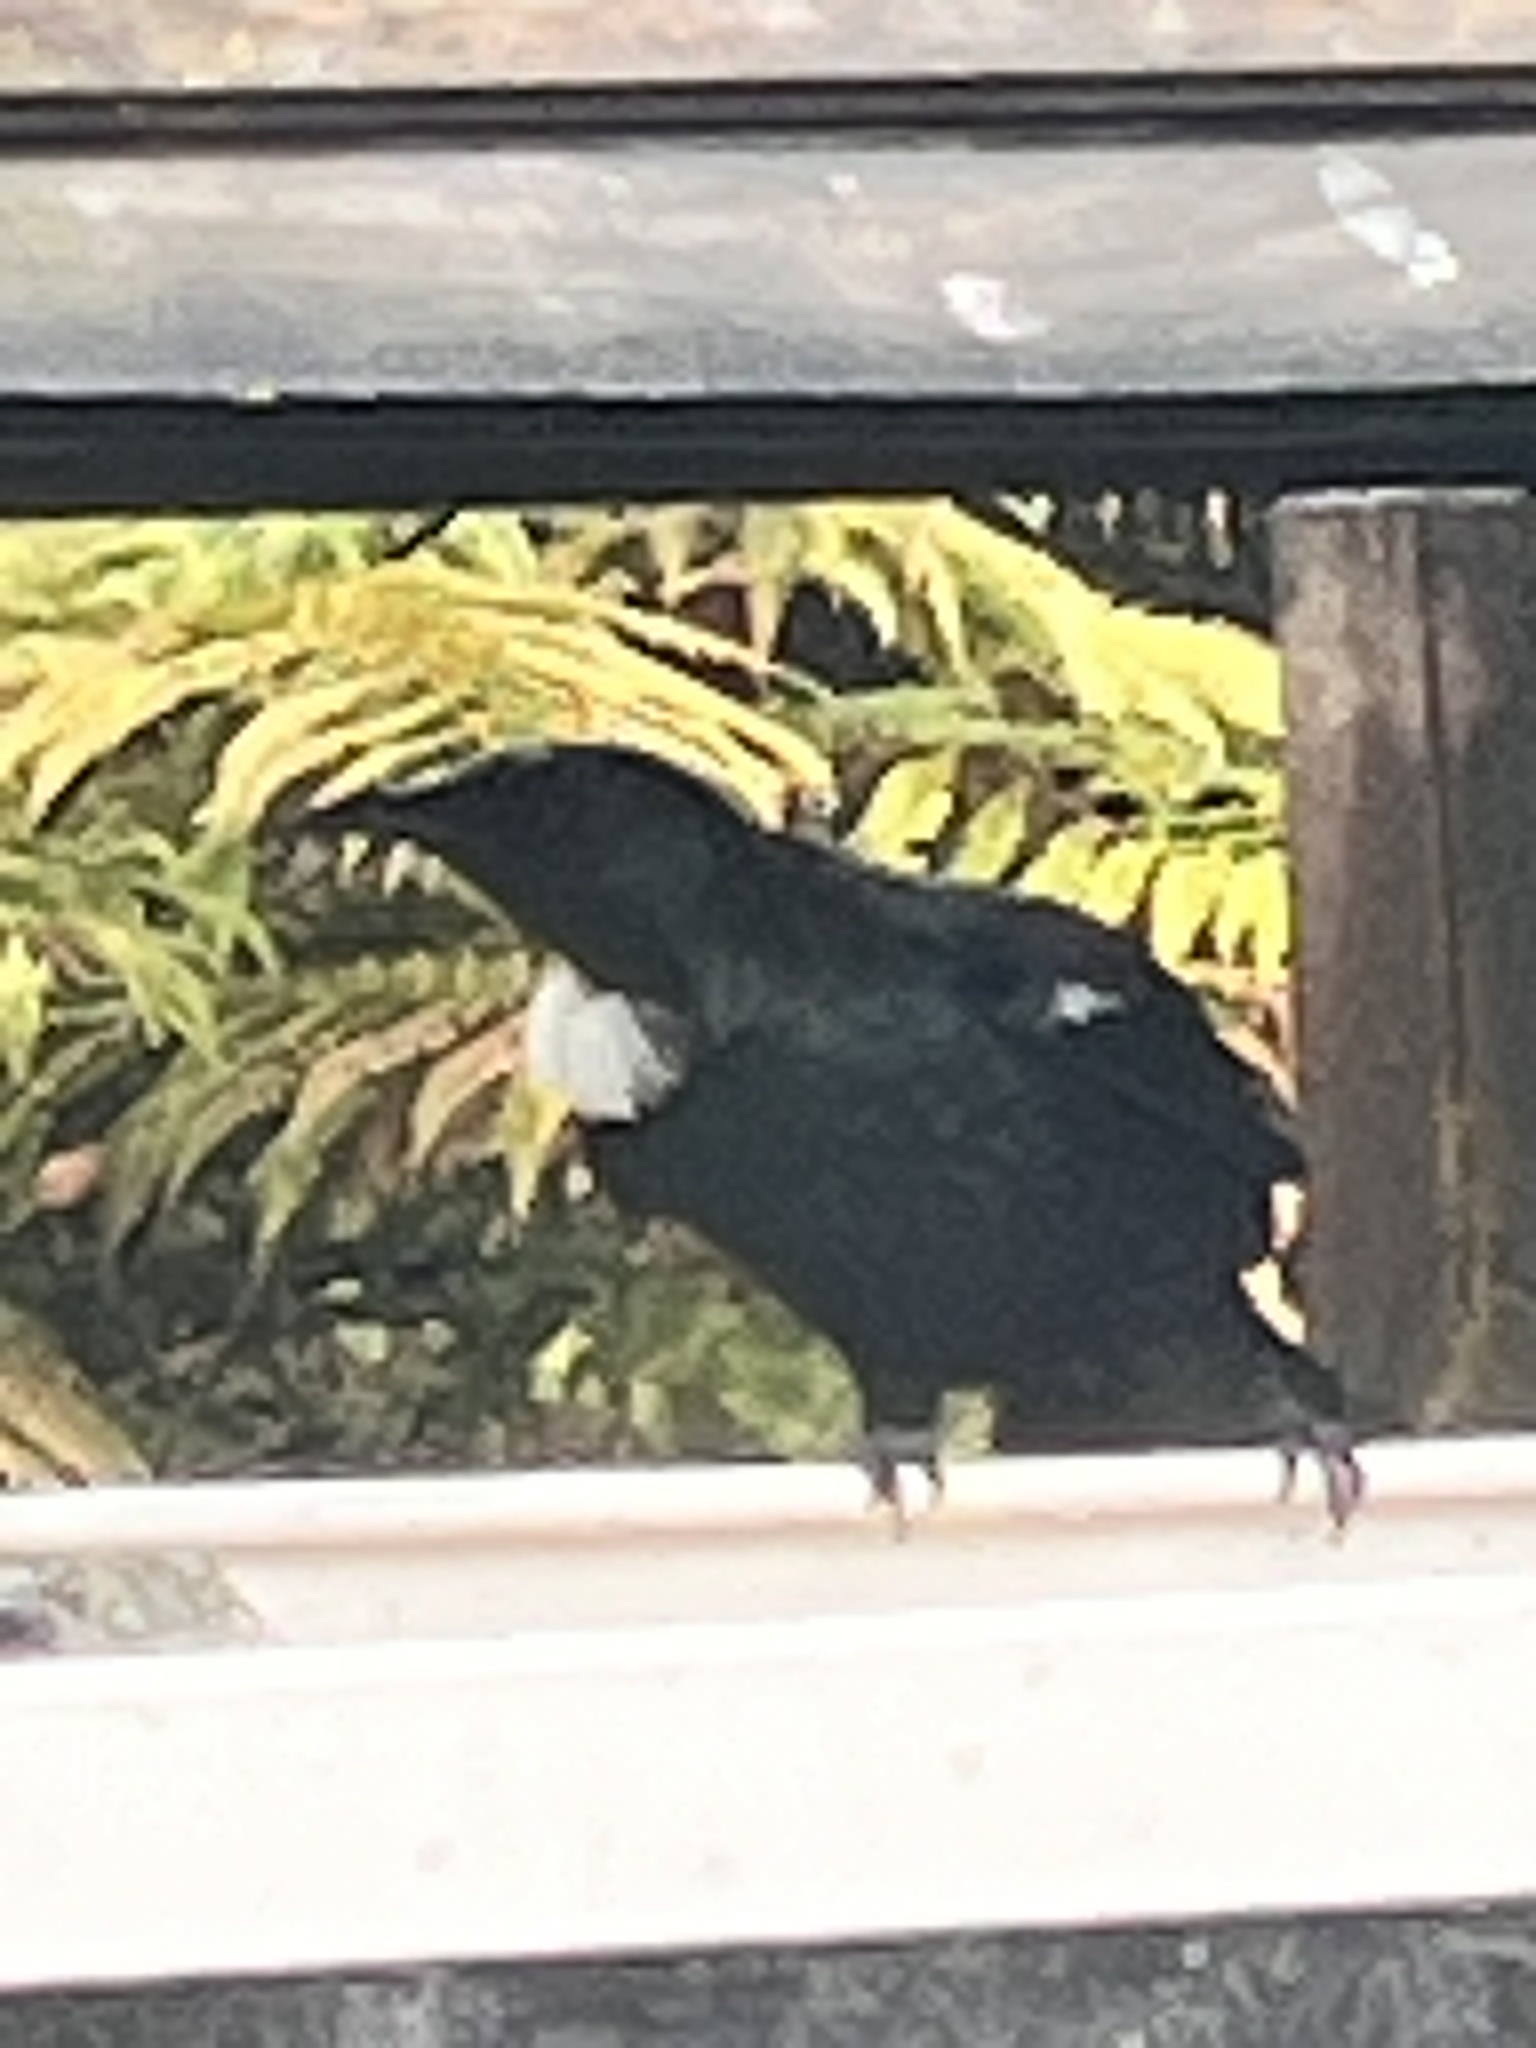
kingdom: Animalia
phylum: Chordata
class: Aves
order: Passeriformes
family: Meliphagidae
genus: Prosthemadera
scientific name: Prosthemadera novaeseelandiae
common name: Tui
